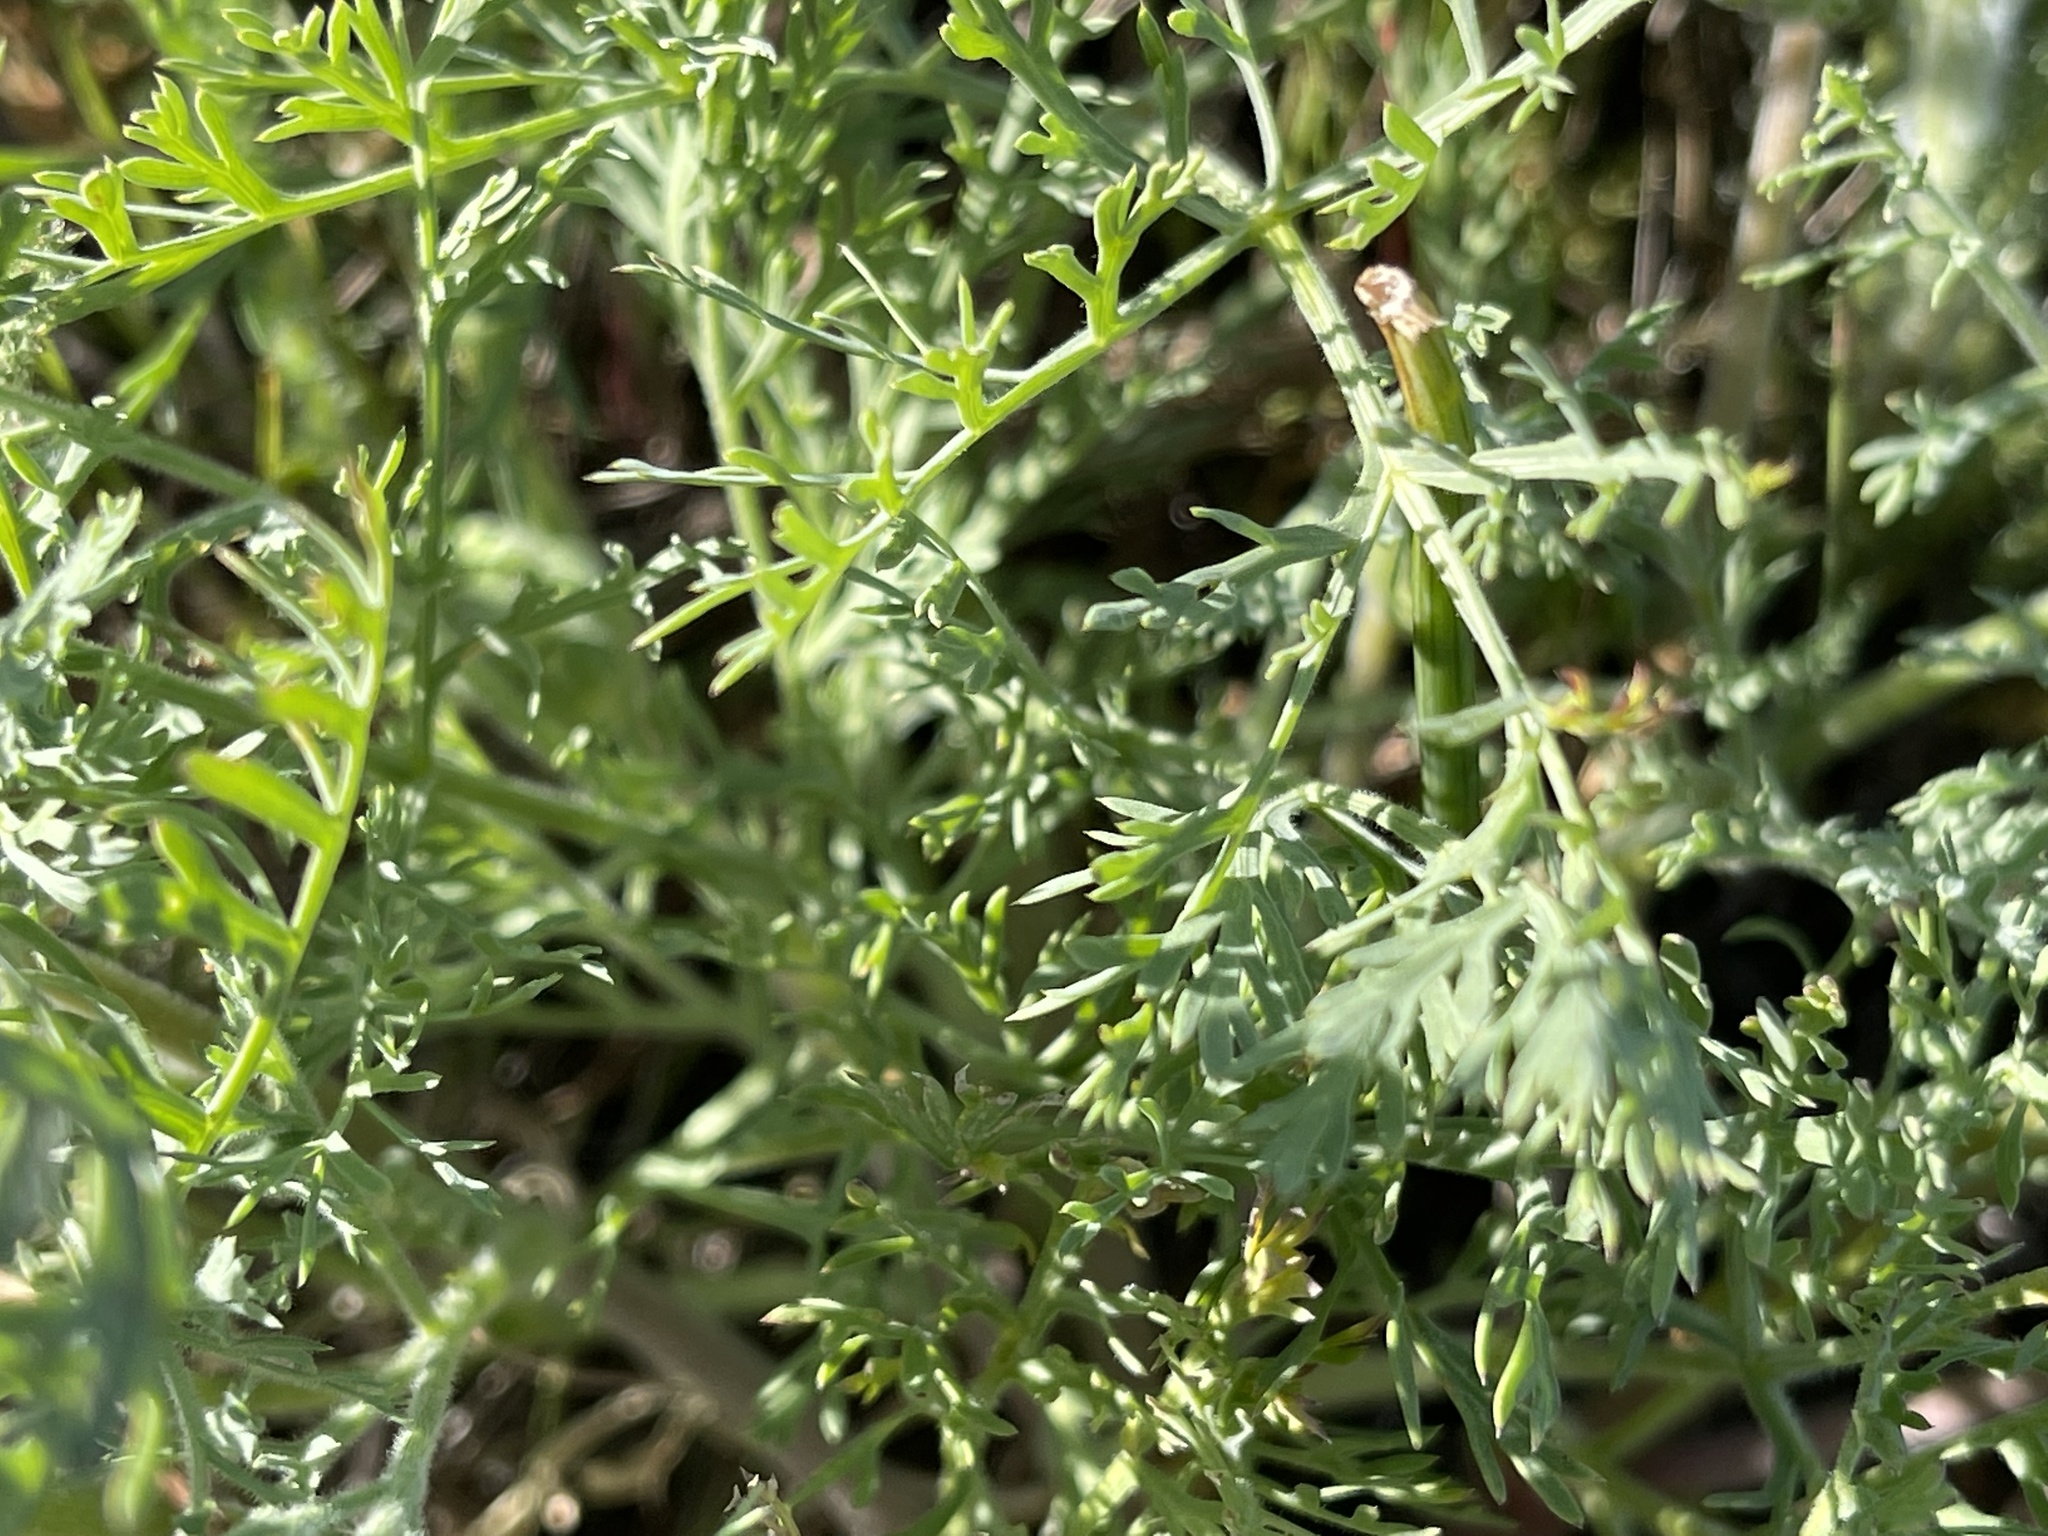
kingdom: Plantae
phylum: Tracheophyta
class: Magnoliopsida
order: Apiales
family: Apiaceae
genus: Lomatium
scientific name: Lomatium macrocarpum
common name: Big-seed biscuitroot
